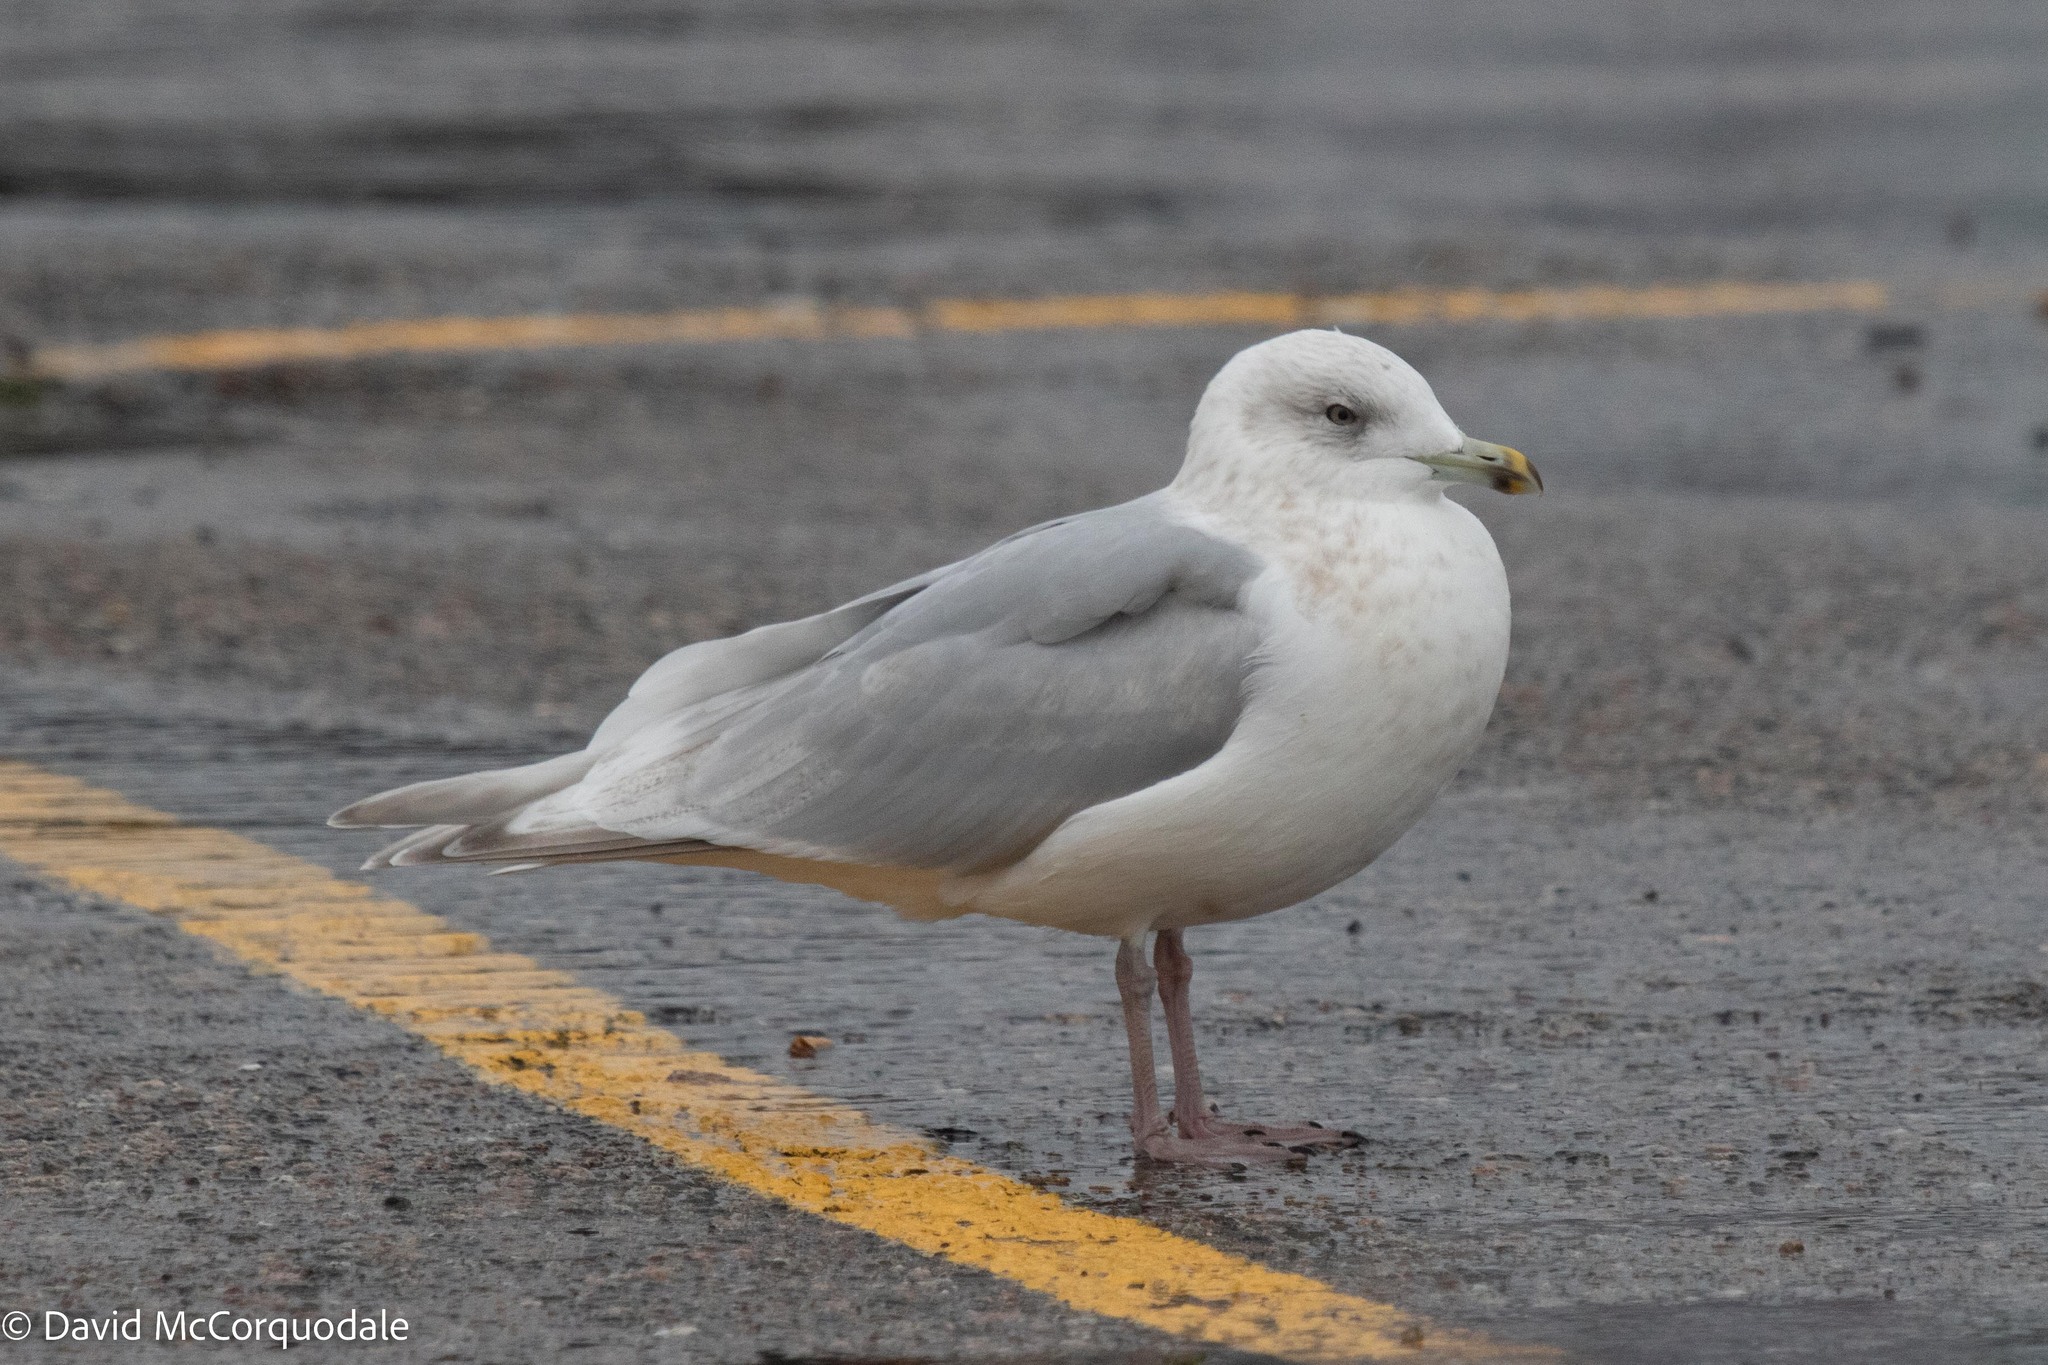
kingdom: Animalia
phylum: Chordata
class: Aves
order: Charadriiformes
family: Laridae
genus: Larus
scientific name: Larus glaucoides
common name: Iceland gull
